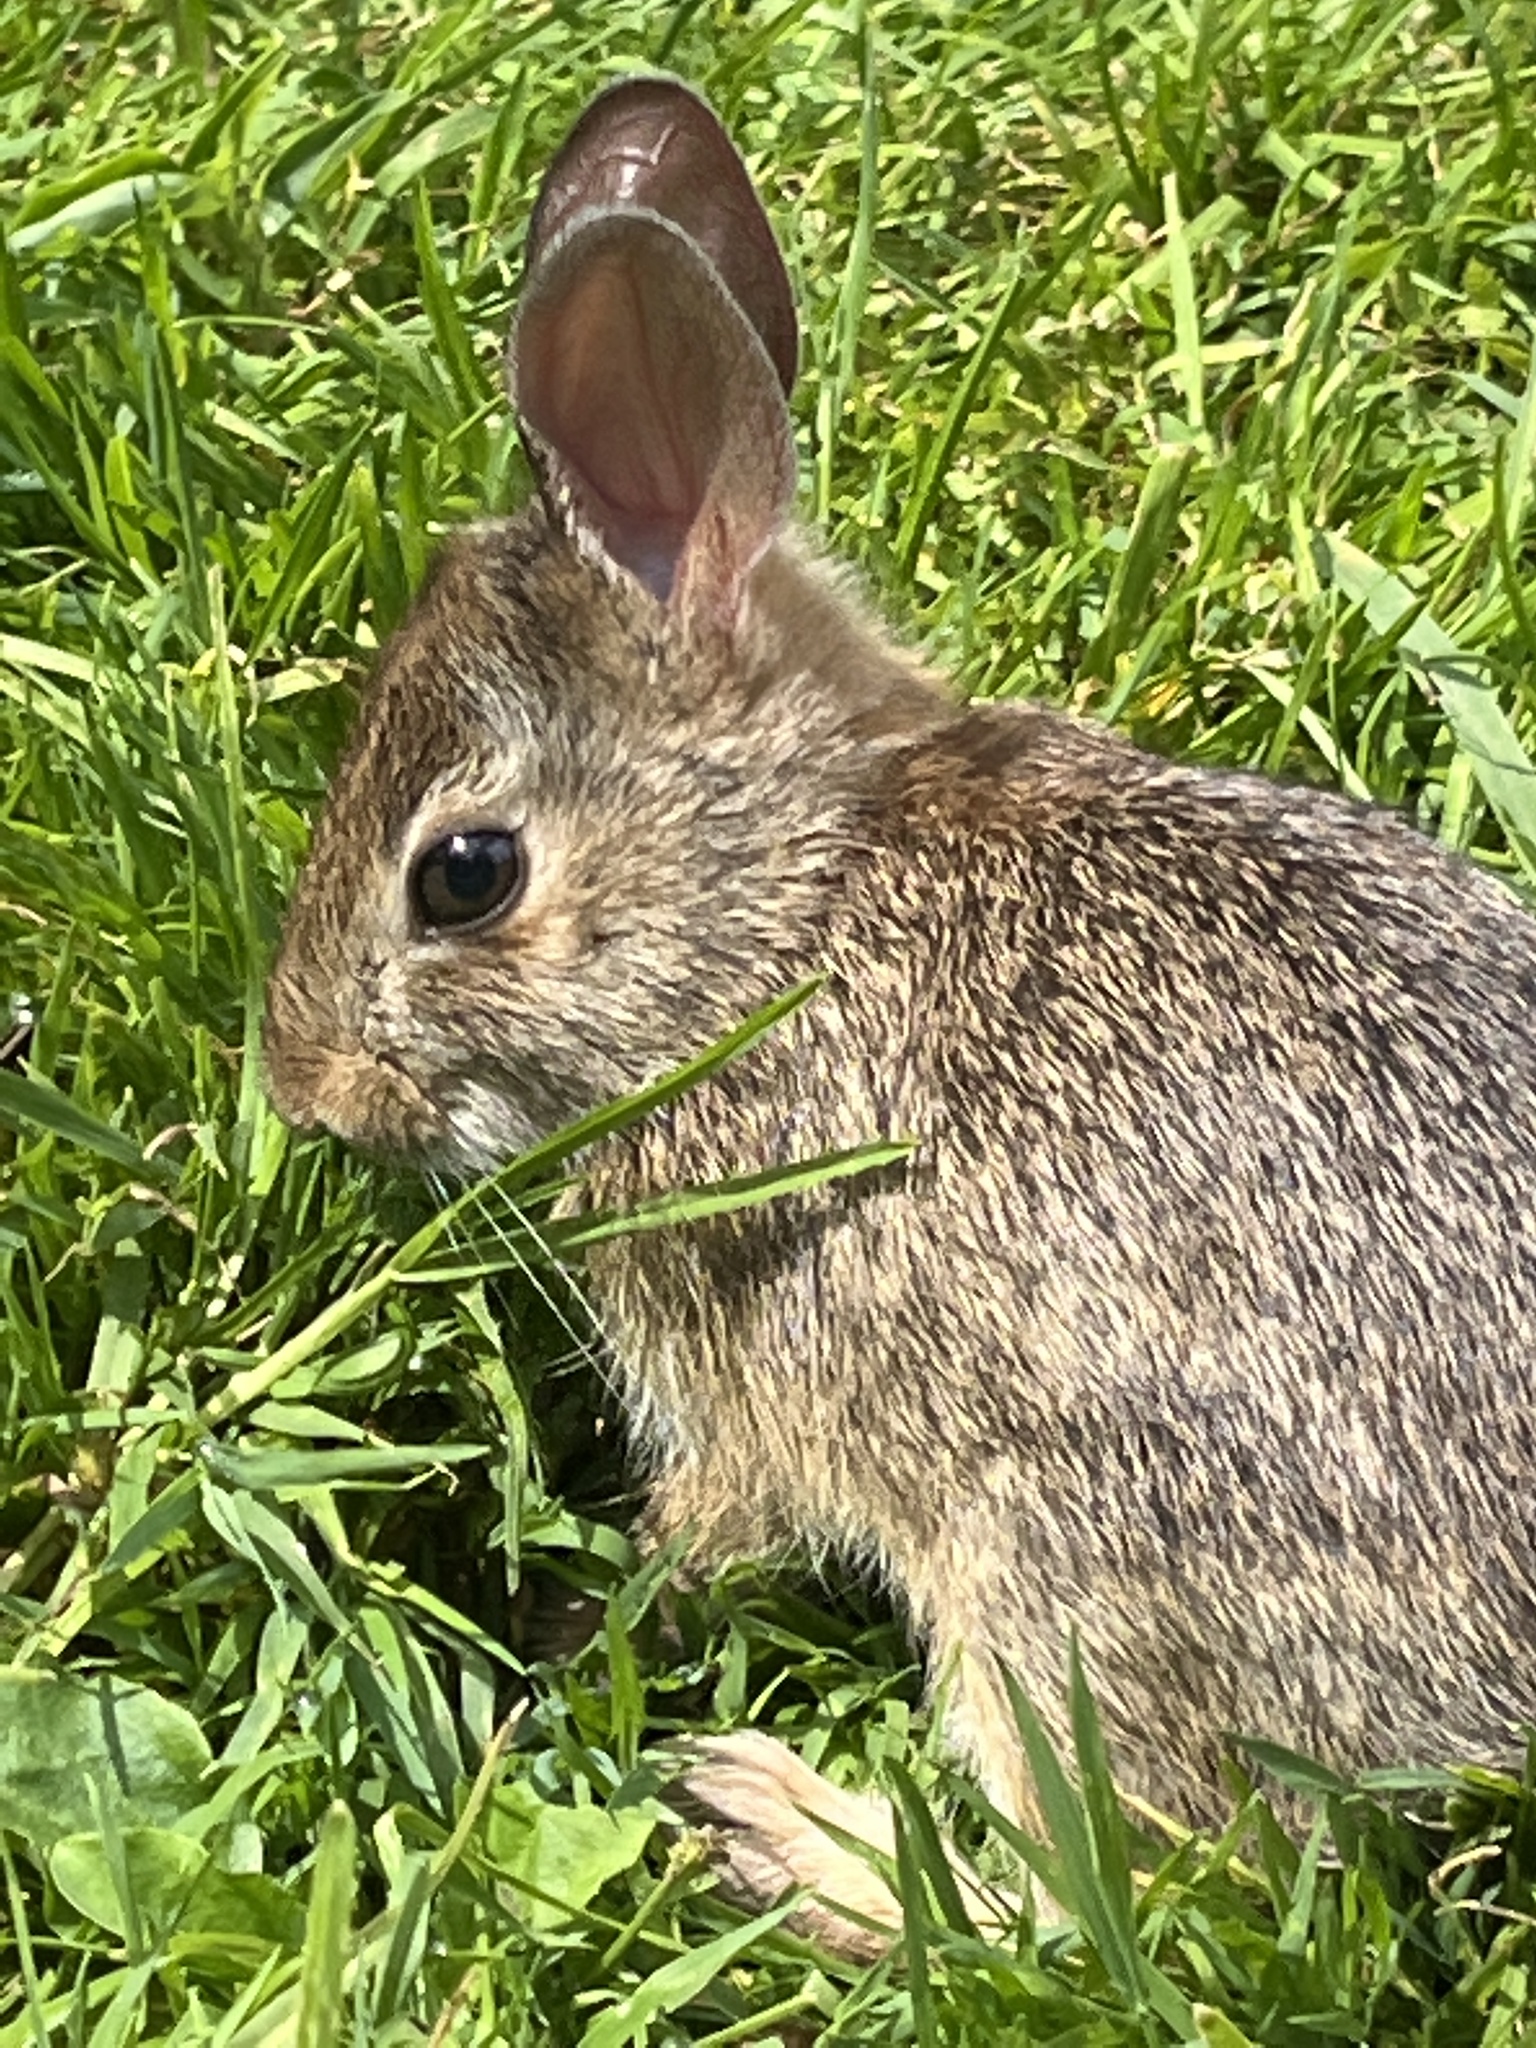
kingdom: Animalia
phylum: Chordata
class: Mammalia
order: Lagomorpha
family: Leporidae
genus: Sylvilagus
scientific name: Sylvilagus floridanus
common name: Eastern cottontail
